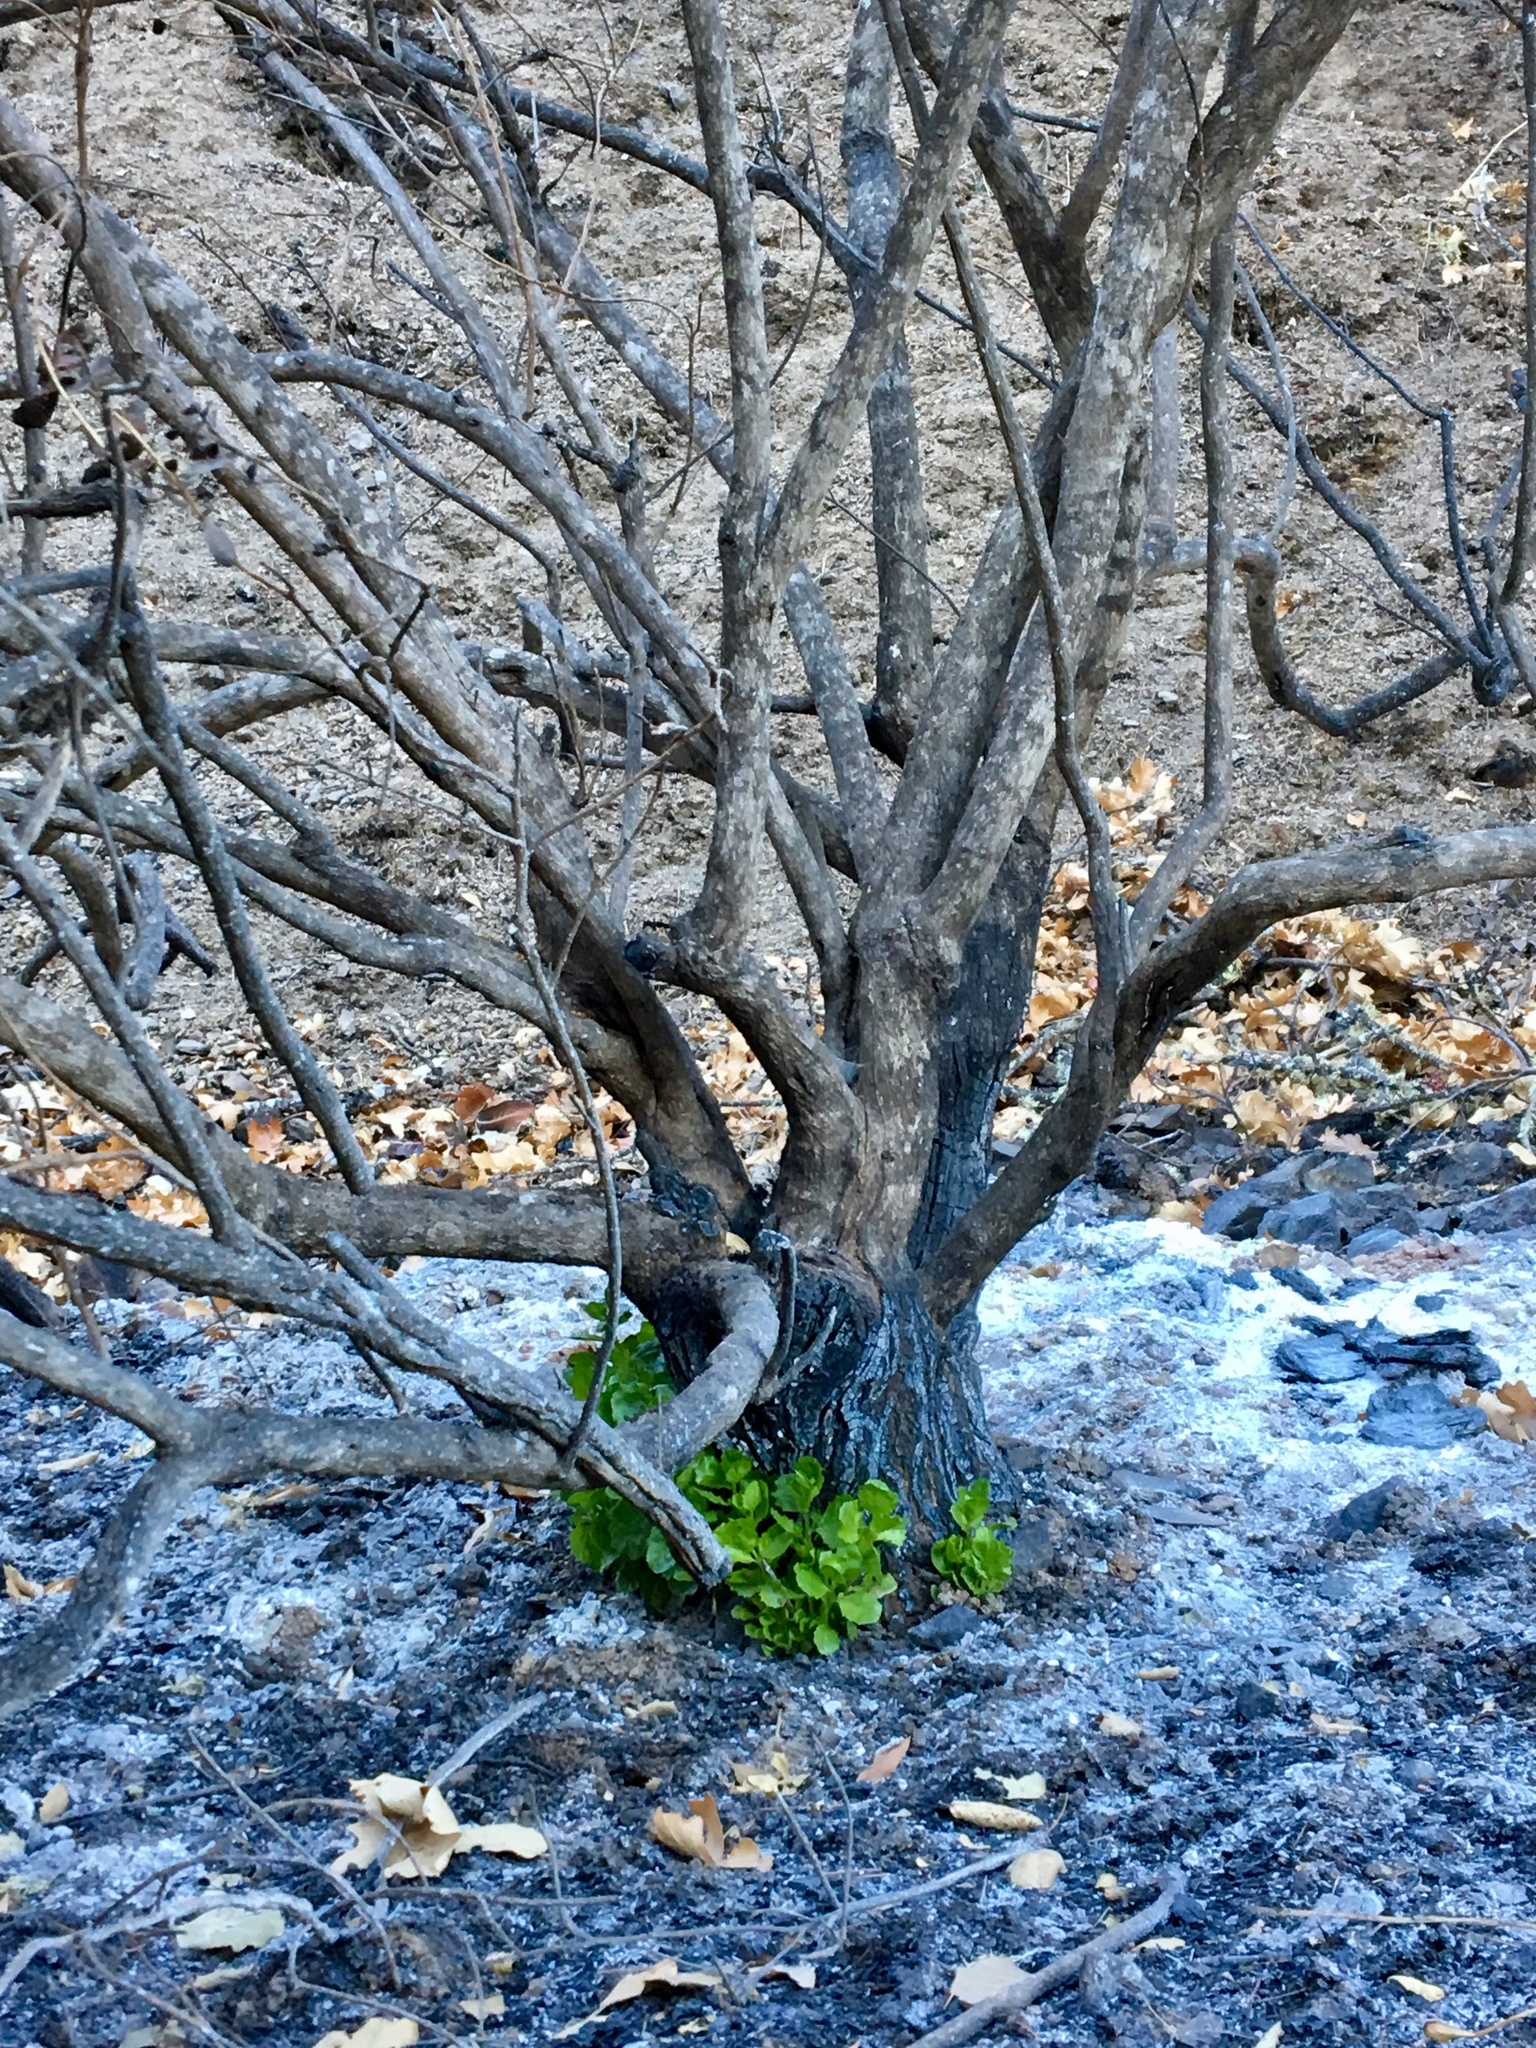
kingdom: Plantae
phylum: Tracheophyta
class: Magnoliopsida
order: Asterales
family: Asteraceae
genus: Baccharis
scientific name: Baccharis pilularis
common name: Coyotebrush
